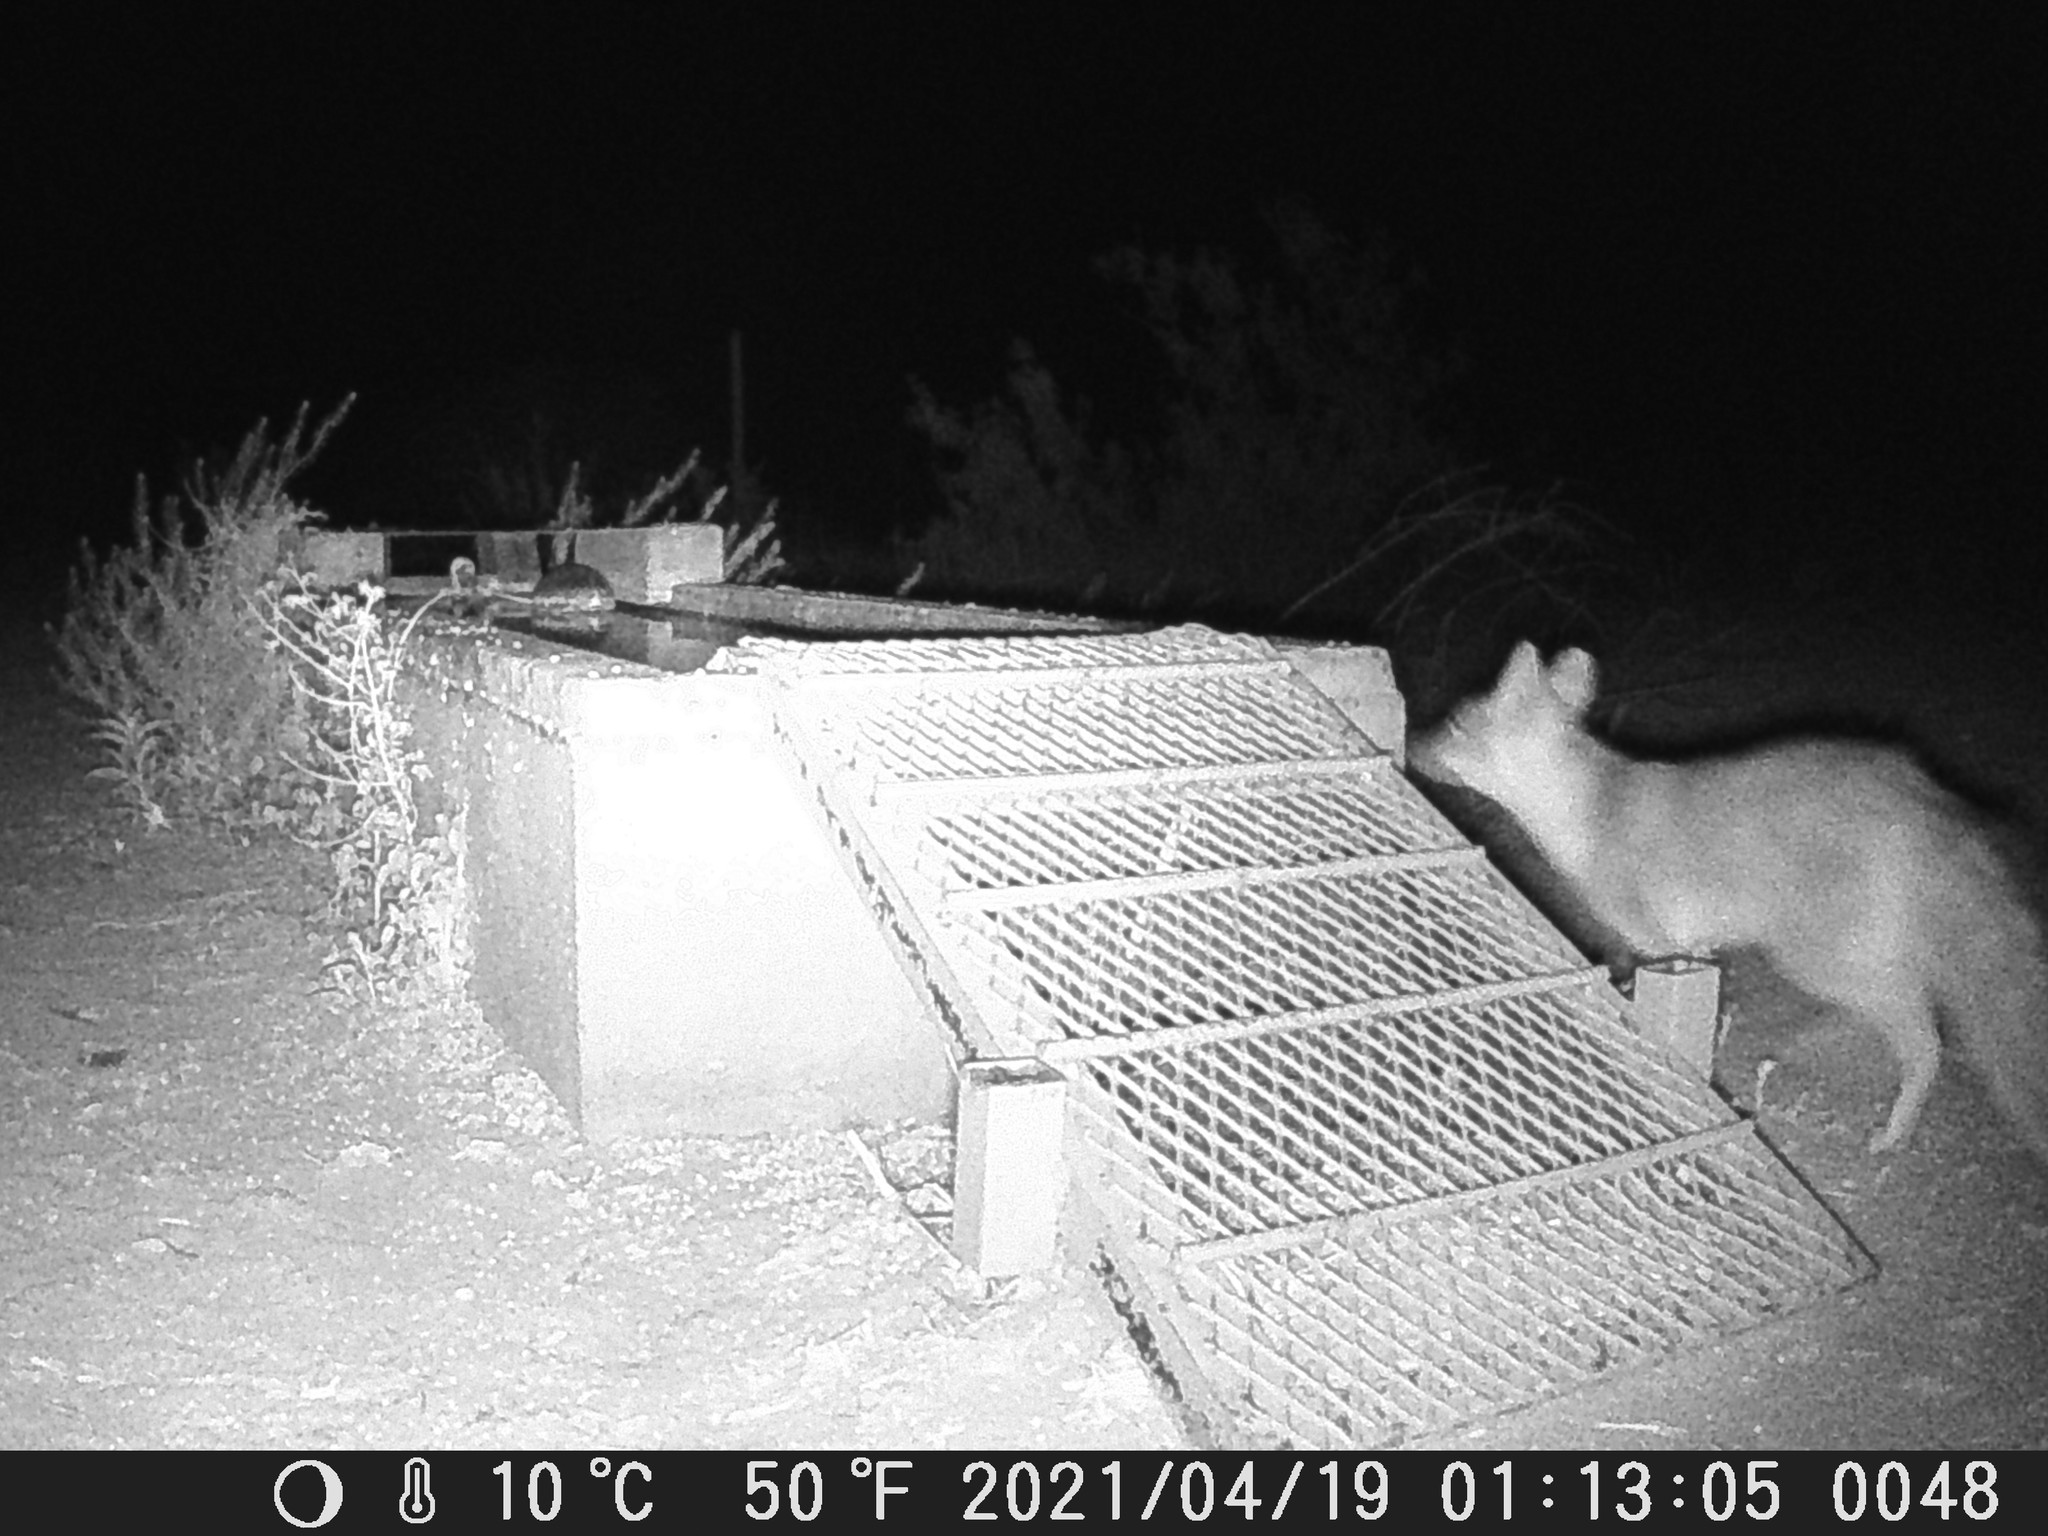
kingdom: Animalia
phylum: Chordata
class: Mammalia
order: Carnivora
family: Canidae
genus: Urocyon
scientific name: Urocyon cinereoargenteus
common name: Gray fox
